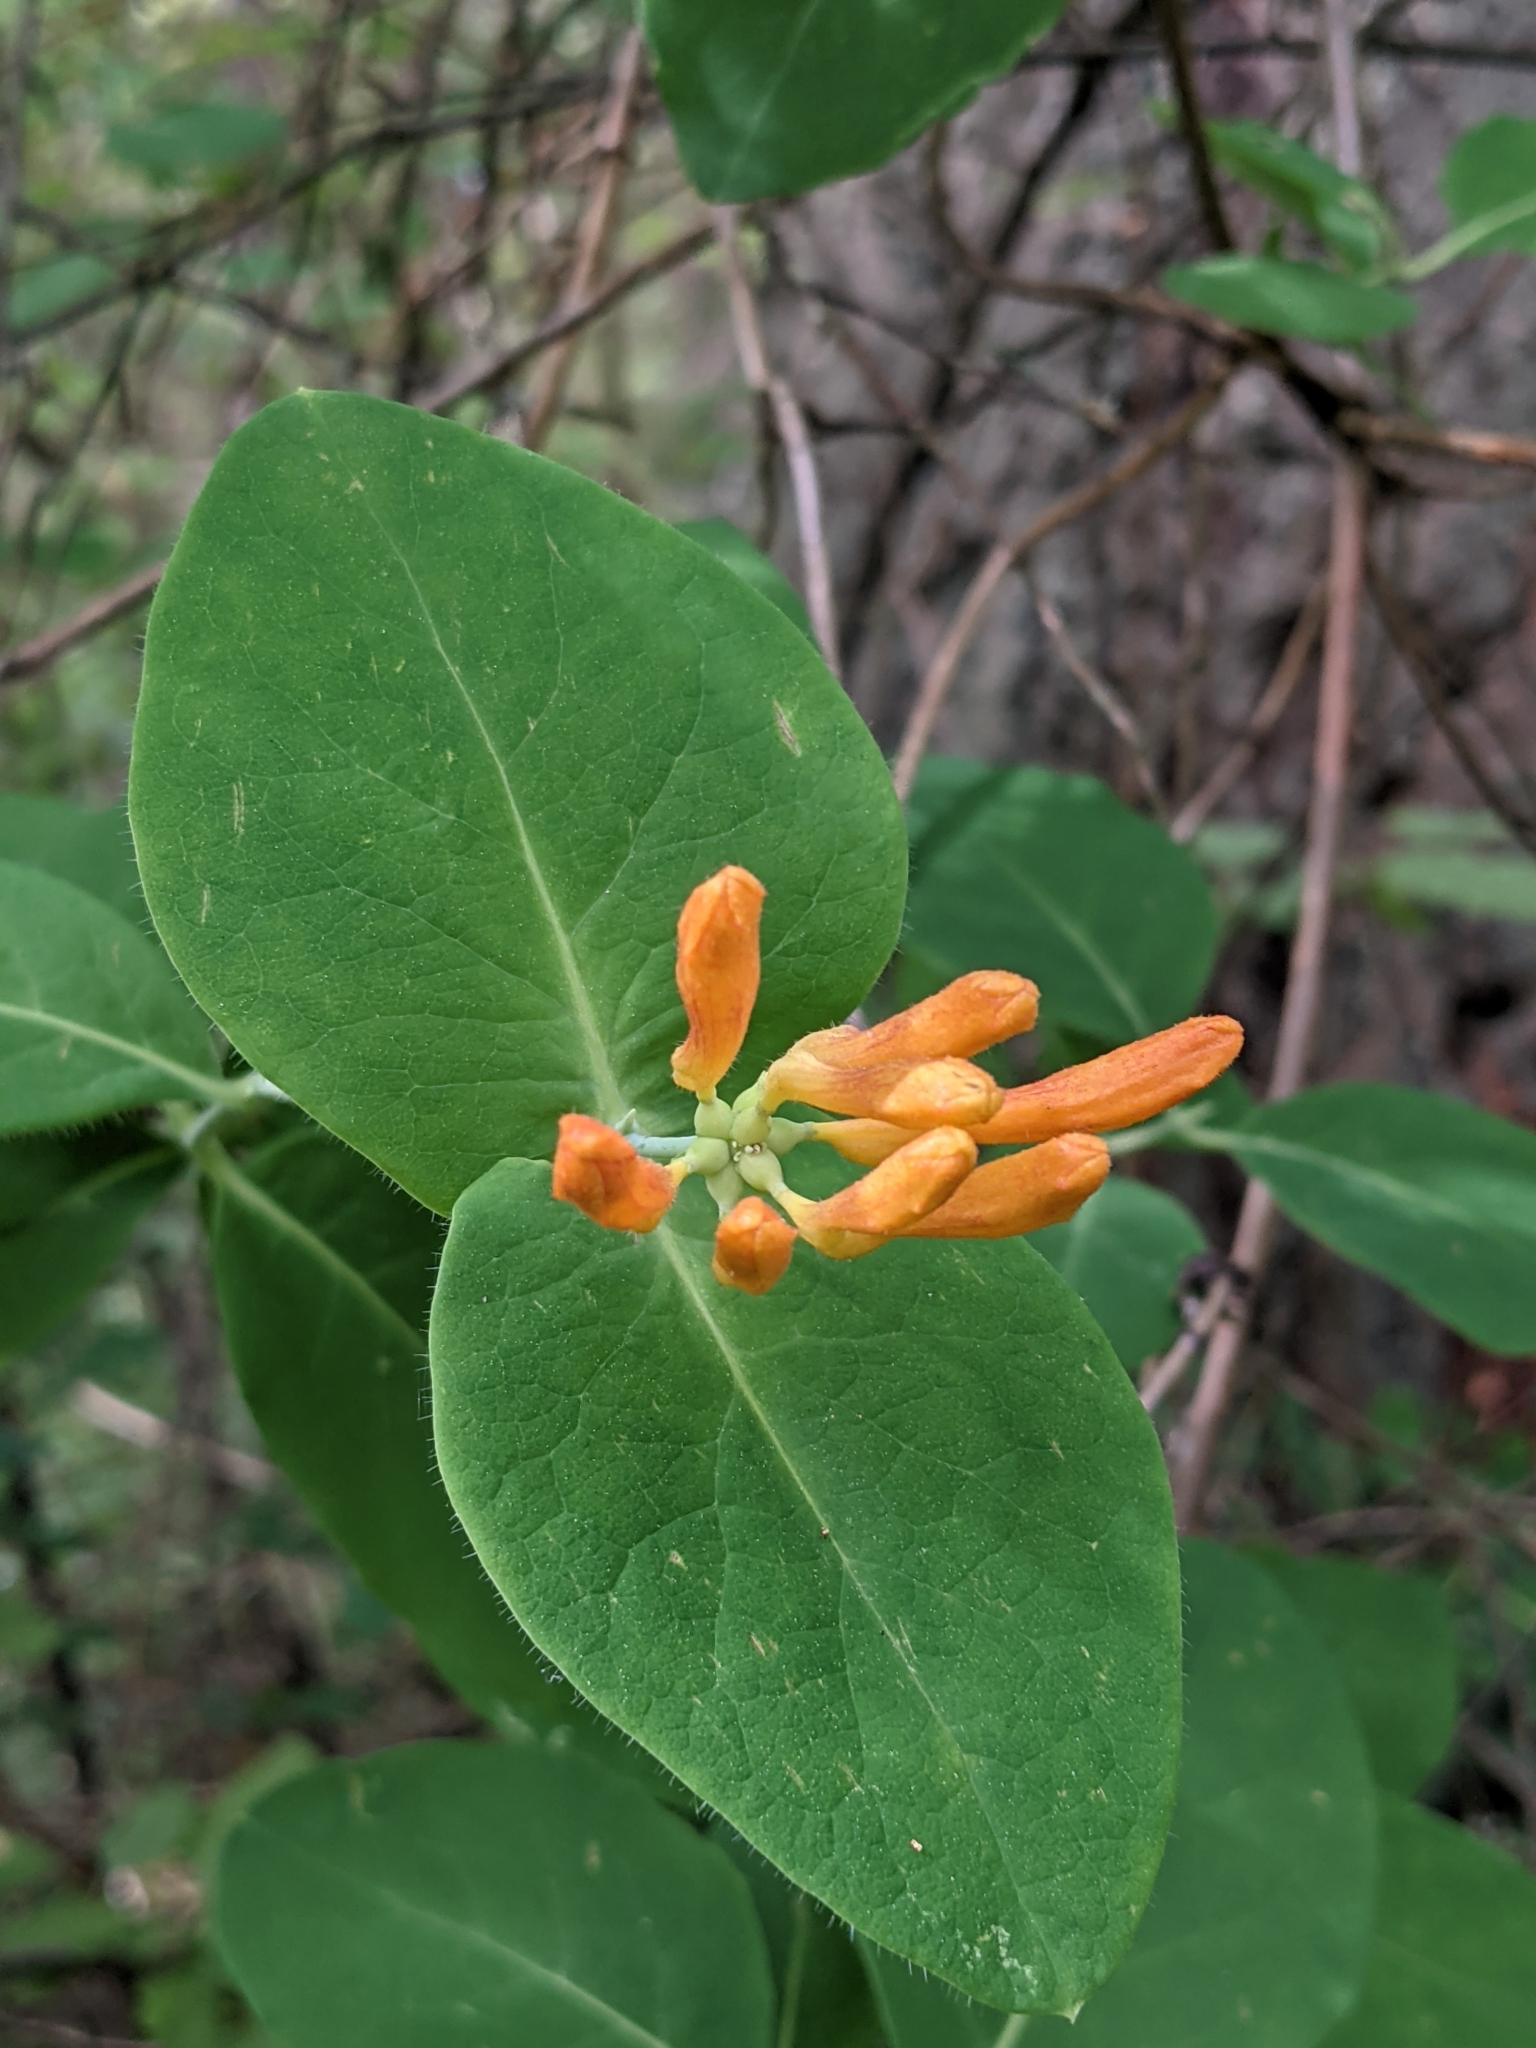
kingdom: Plantae
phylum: Tracheophyta
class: Magnoliopsida
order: Dipsacales
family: Caprifoliaceae
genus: Lonicera
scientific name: Lonicera ciliosa
